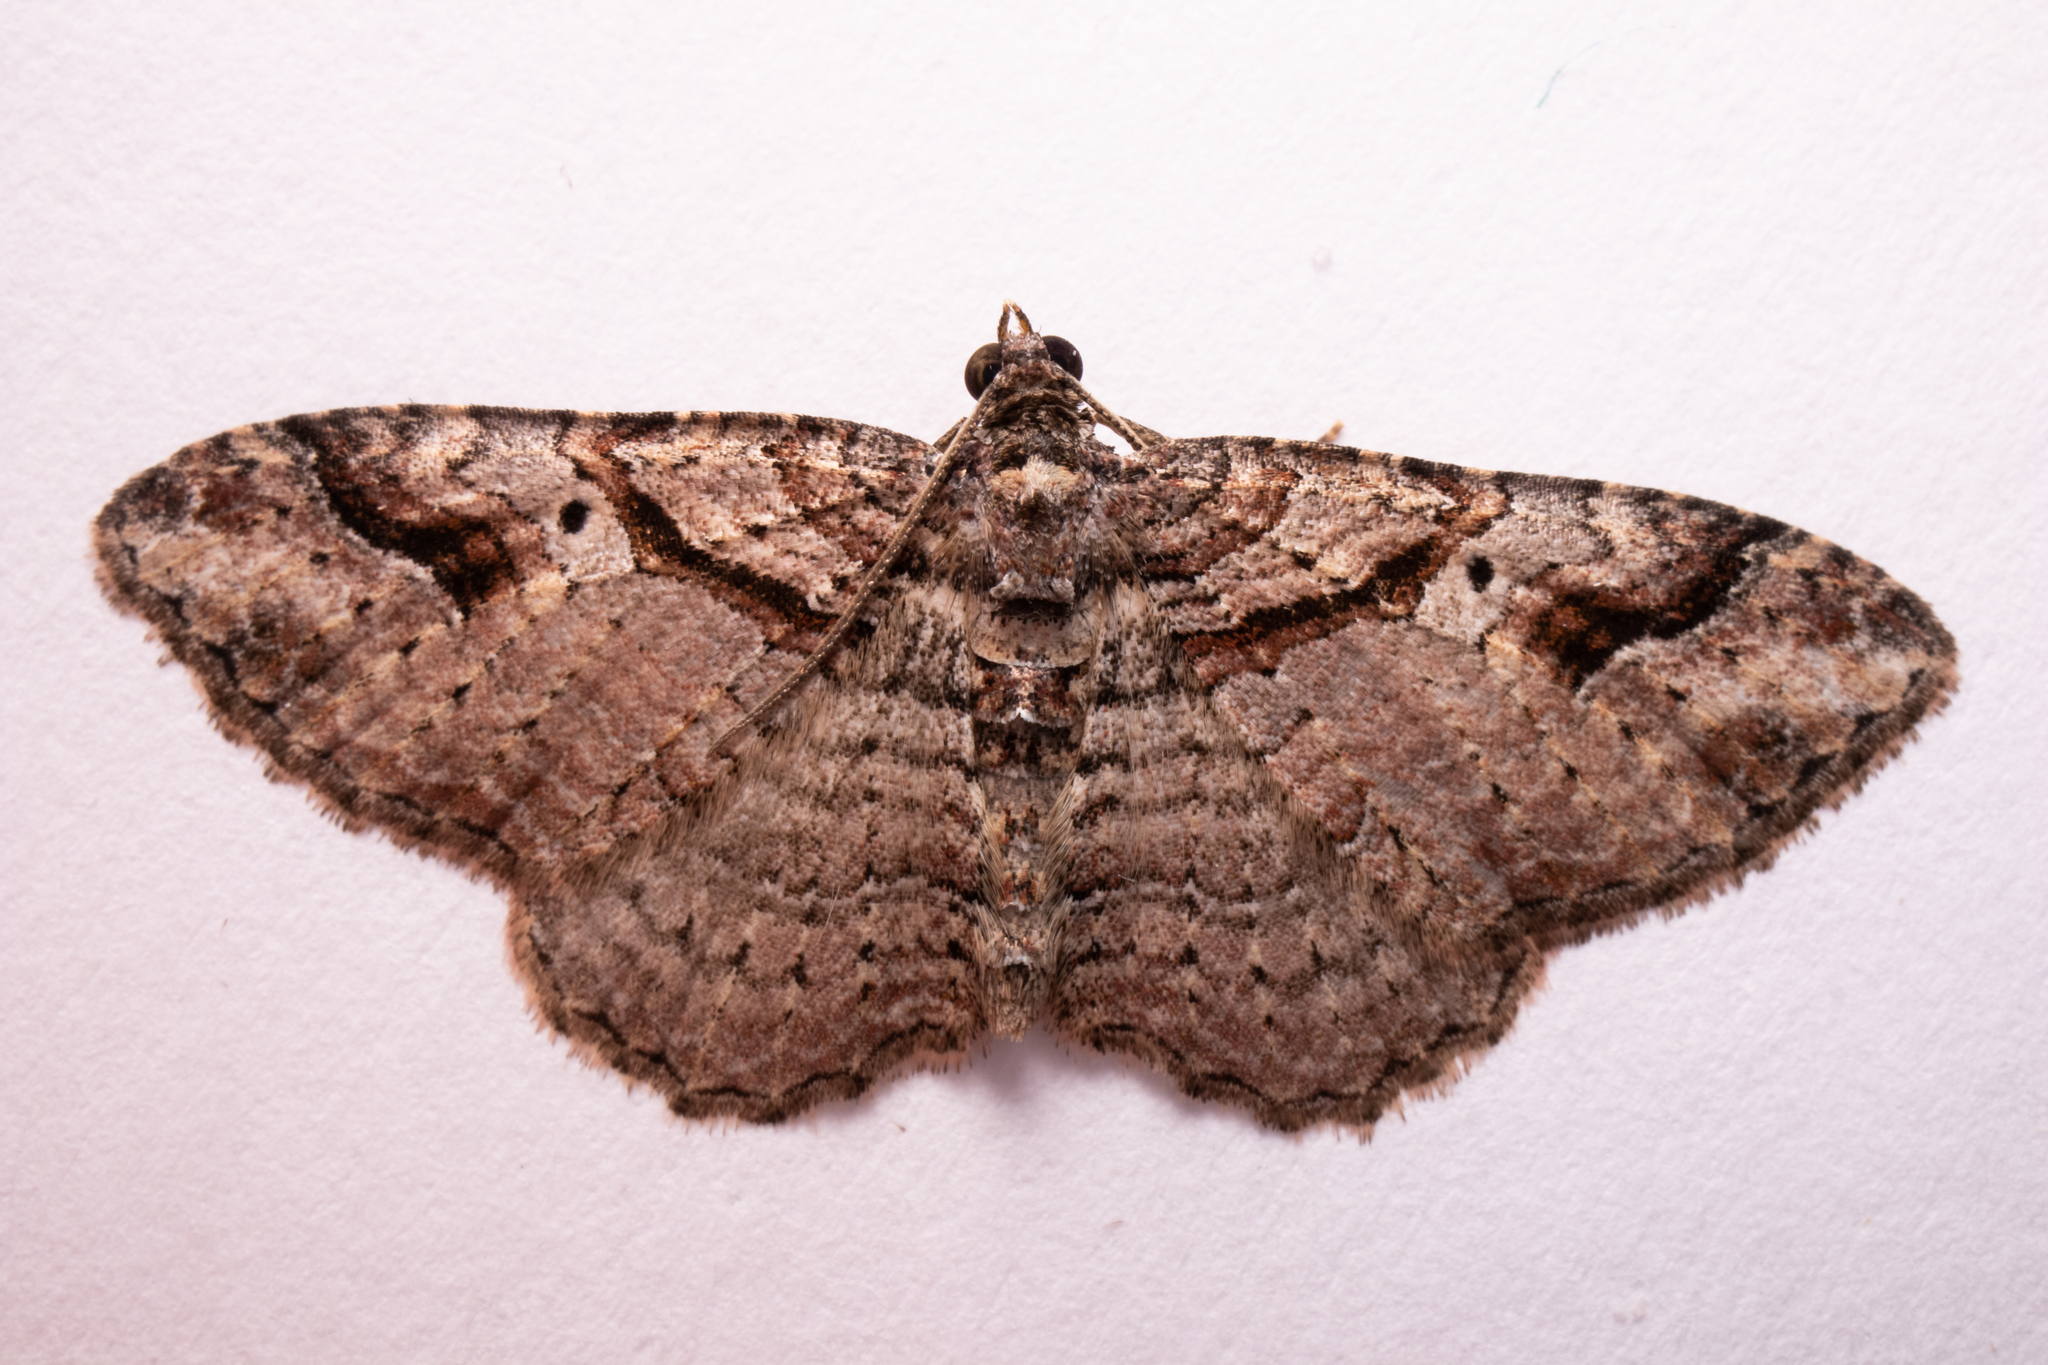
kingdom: Animalia
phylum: Arthropoda
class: Insecta
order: Lepidoptera
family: Geometridae
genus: Costaconvexa
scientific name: Costaconvexa centrostrigaria
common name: Bent-line carpet
